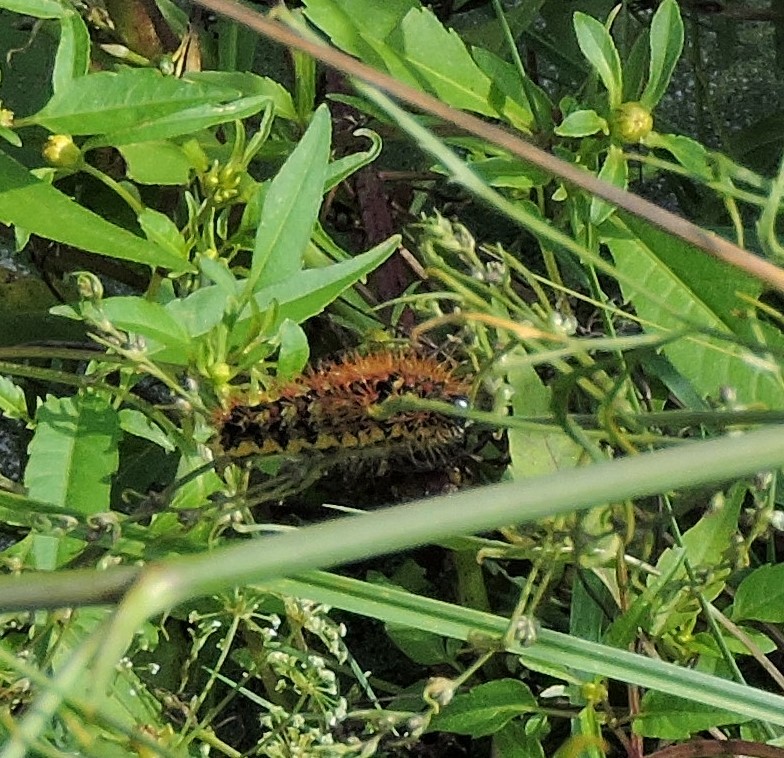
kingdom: Animalia
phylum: Arthropoda
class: Insecta
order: Lepidoptera
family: Noctuidae
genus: Acronicta
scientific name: Acronicta oblinita
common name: Smeared dagger
